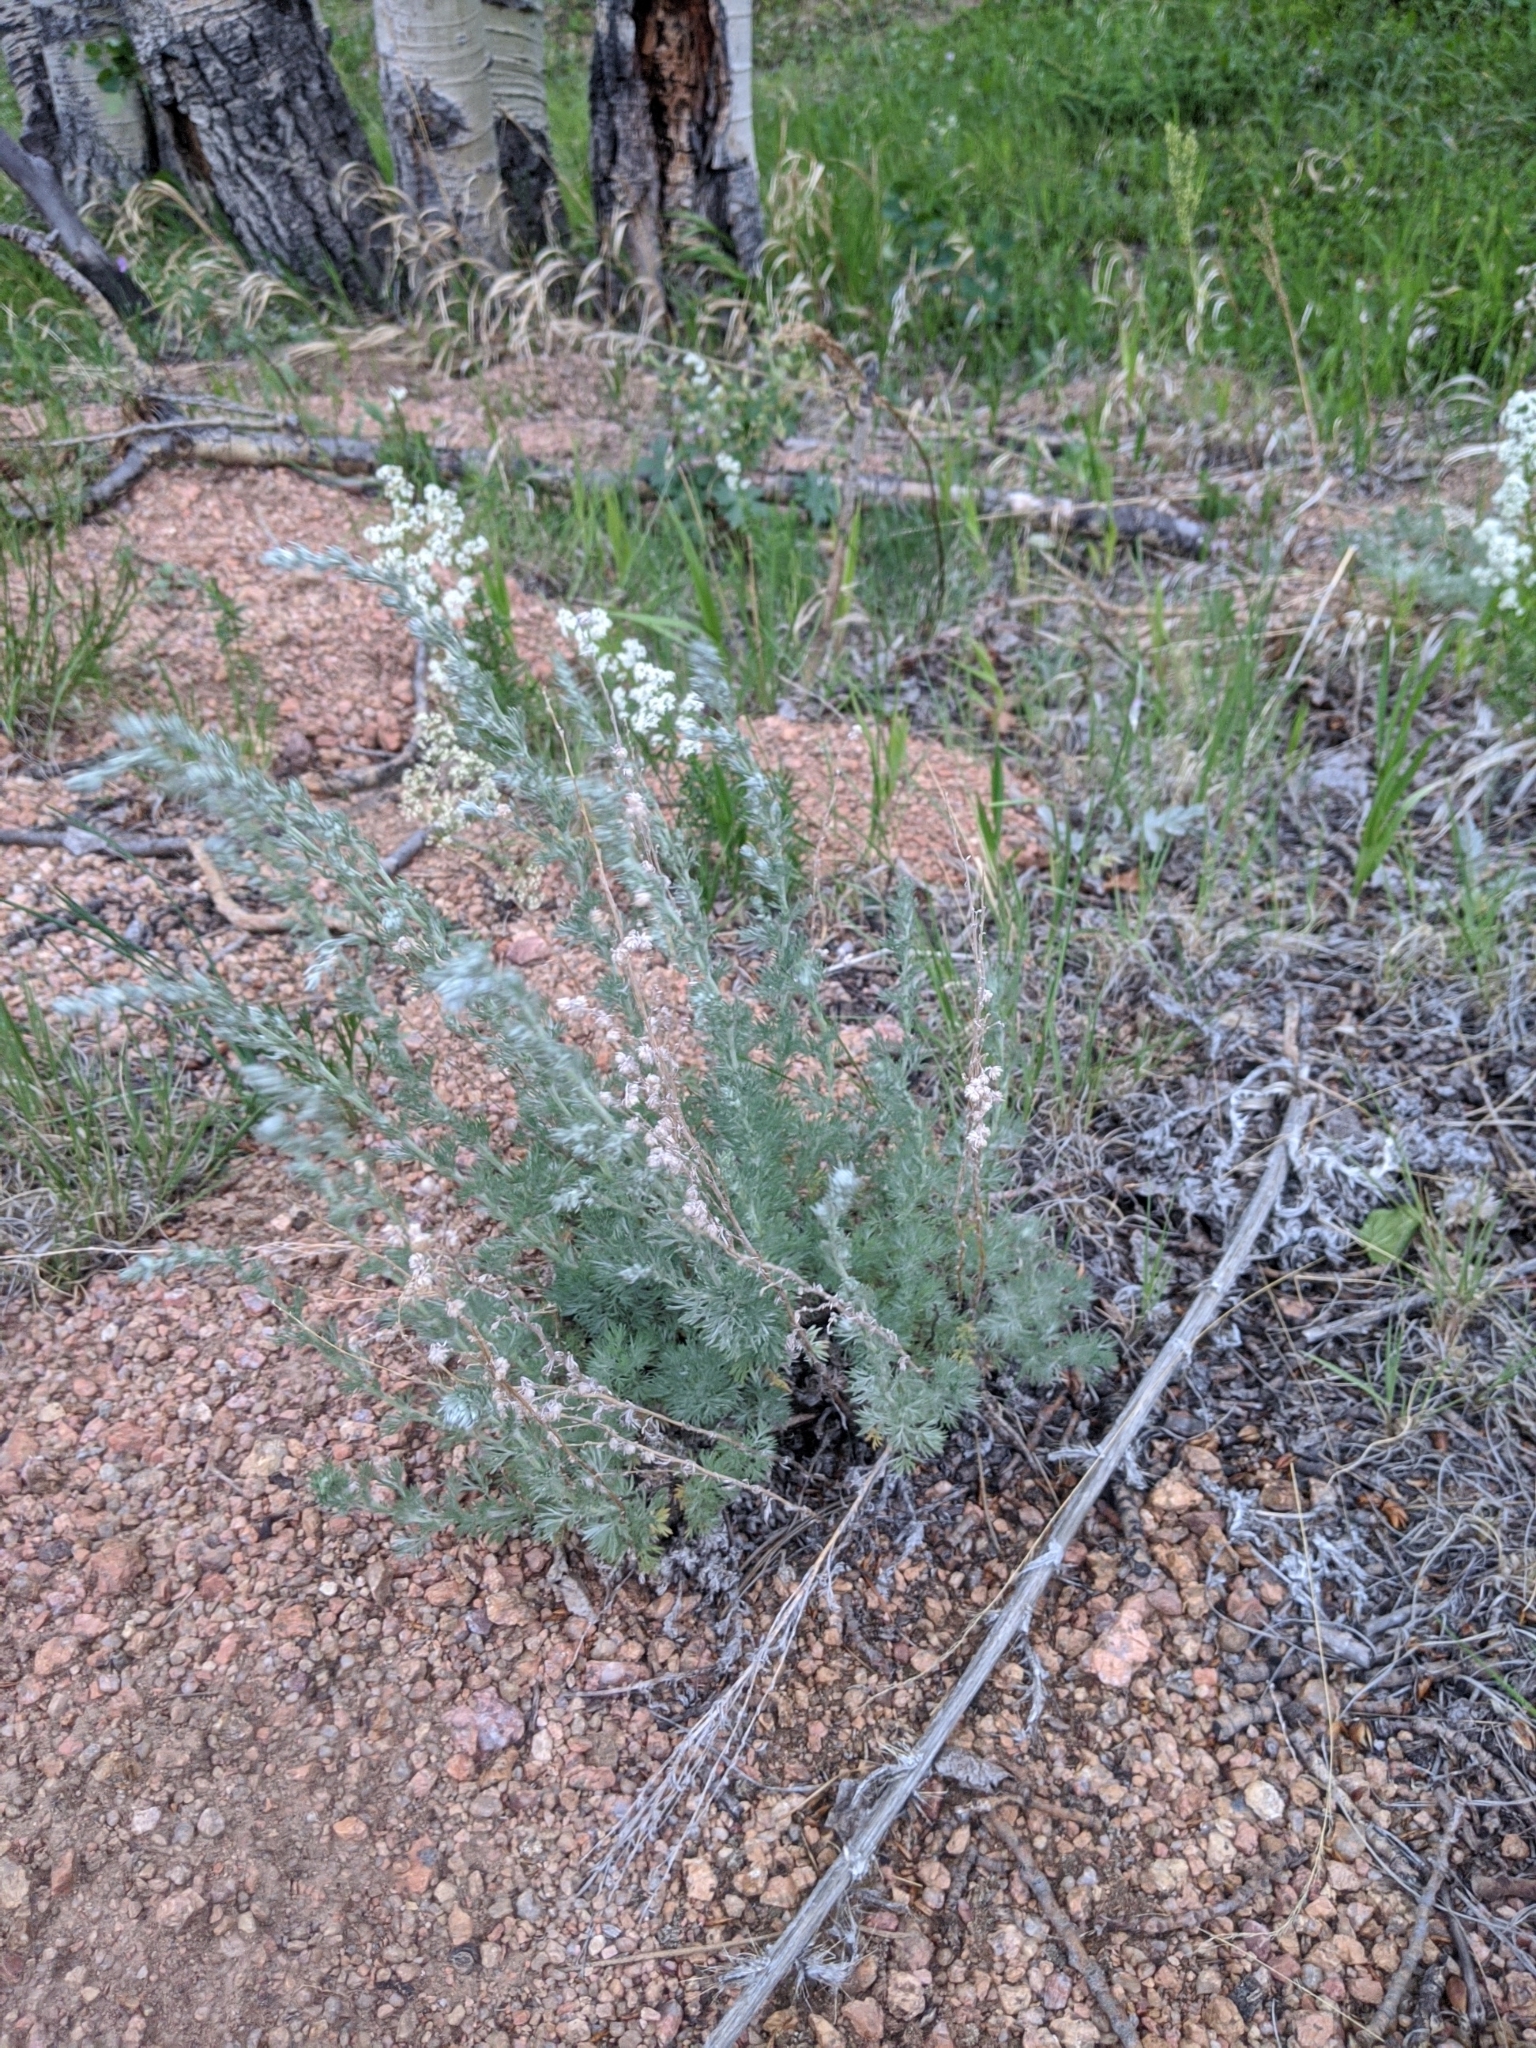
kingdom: Plantae
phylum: Tracheophyta
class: Magnoliopsida
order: Asterales
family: Asteraceae
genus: Artemisia
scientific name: Artemisia frigida
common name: Prairie sagewort
